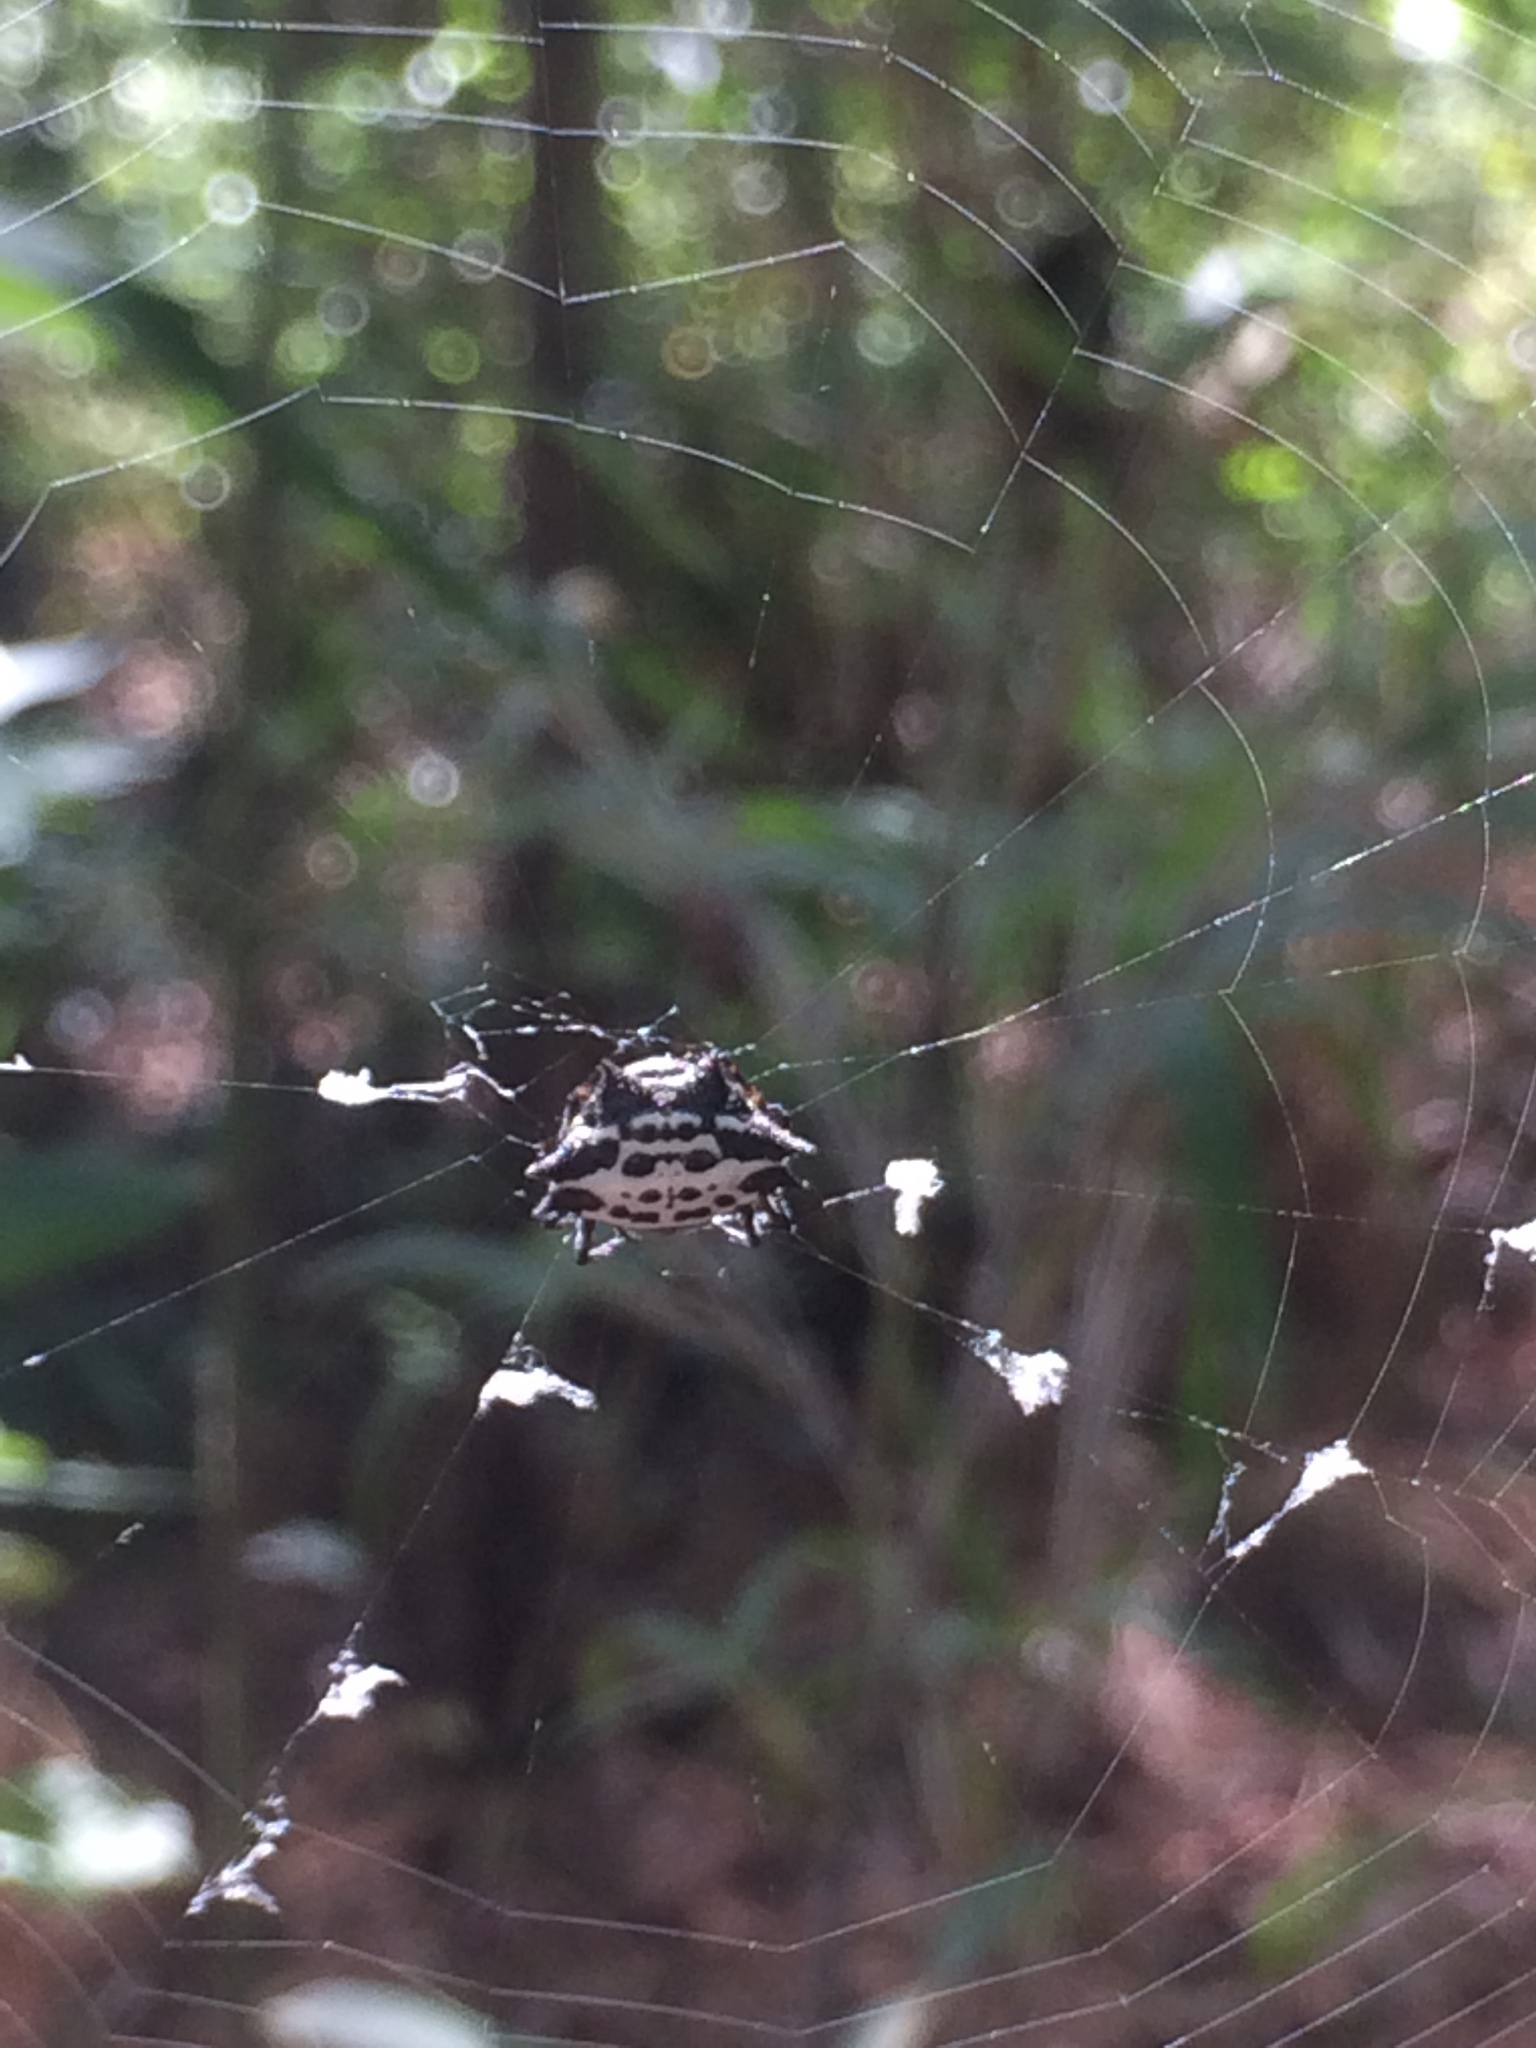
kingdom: Animalia
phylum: Arthropoda
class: Arachnida
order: Araneae
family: Araneidae
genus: Gasteracantha
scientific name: Gasteracantha cancriformis
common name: Orb weavers
